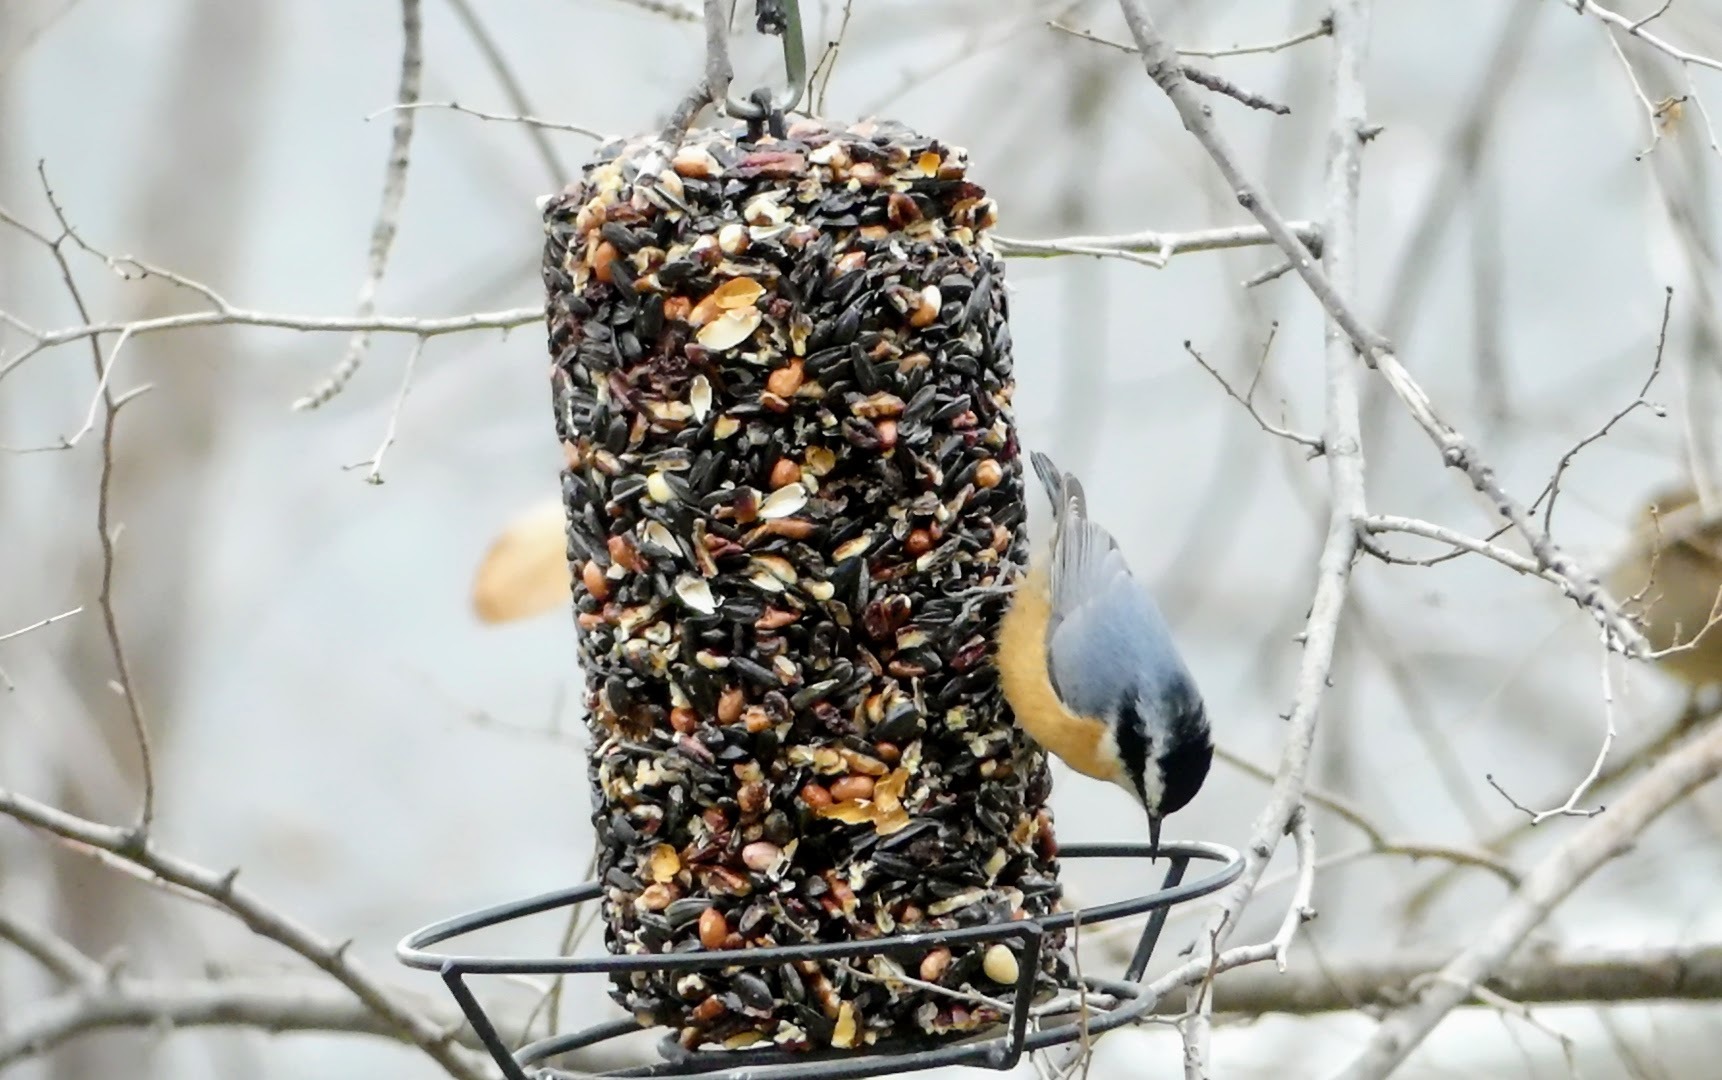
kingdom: Animalia
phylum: Chordata
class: Aves
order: Passeriformes
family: Sittidae
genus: Sitta
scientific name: Sitta canadensis
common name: Red-breasted nuthatch
